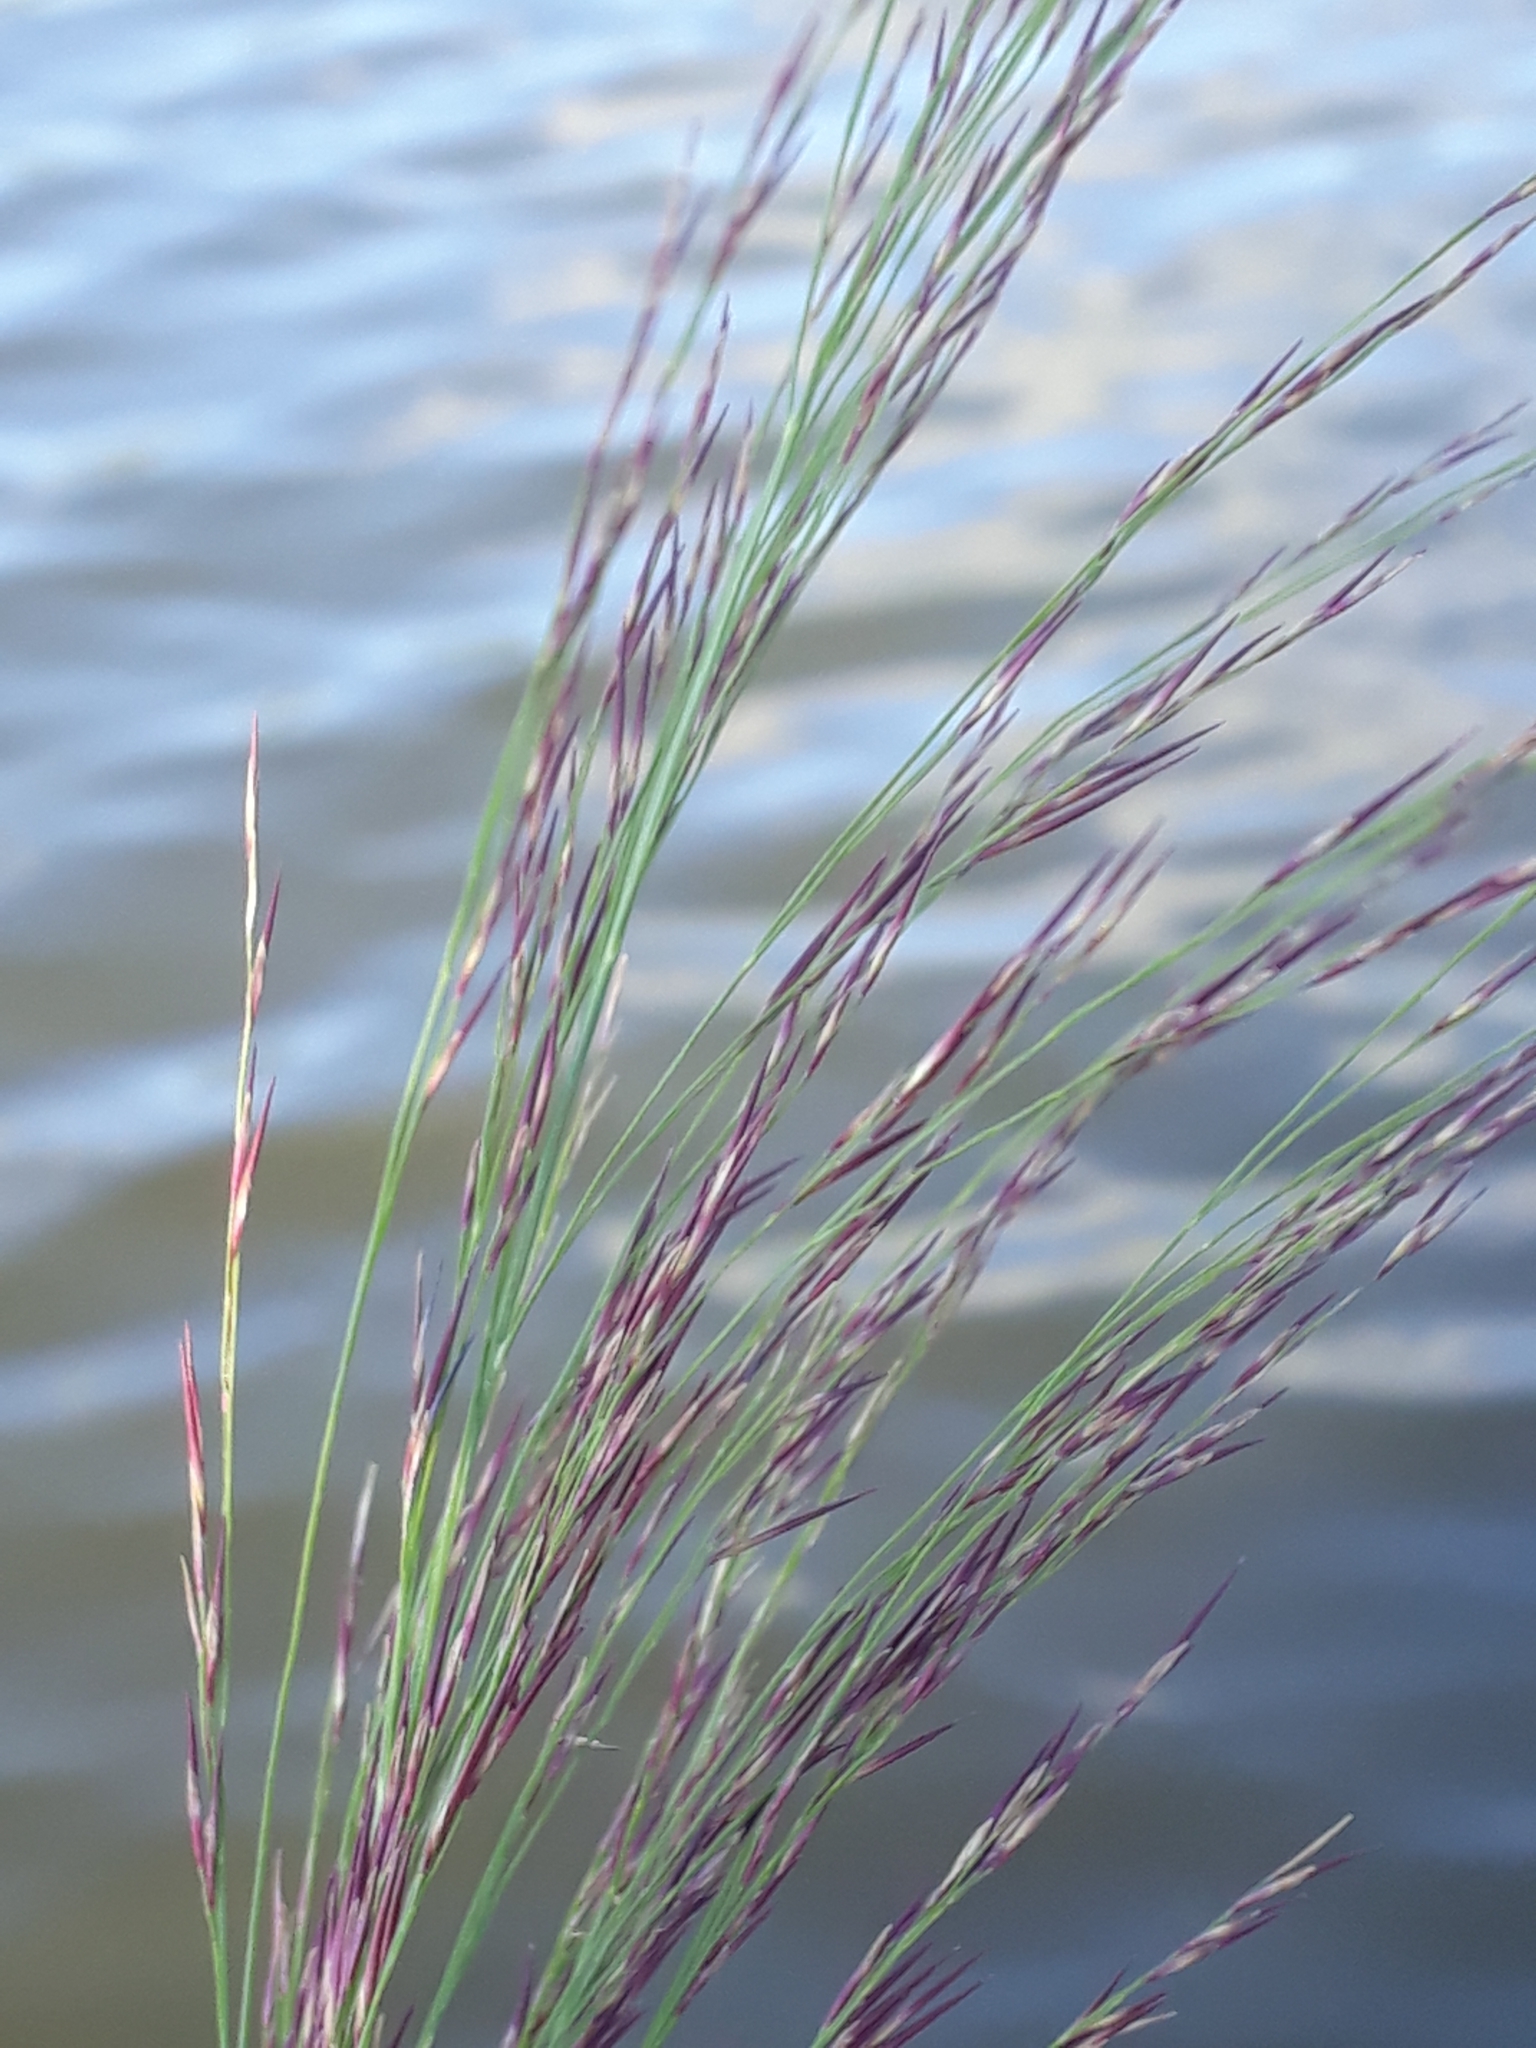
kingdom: Plantae
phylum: Tracheophyta
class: Liliopsida
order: Poales
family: Poaceae
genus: Phragmites
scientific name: Phragmites australis
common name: Common reed
